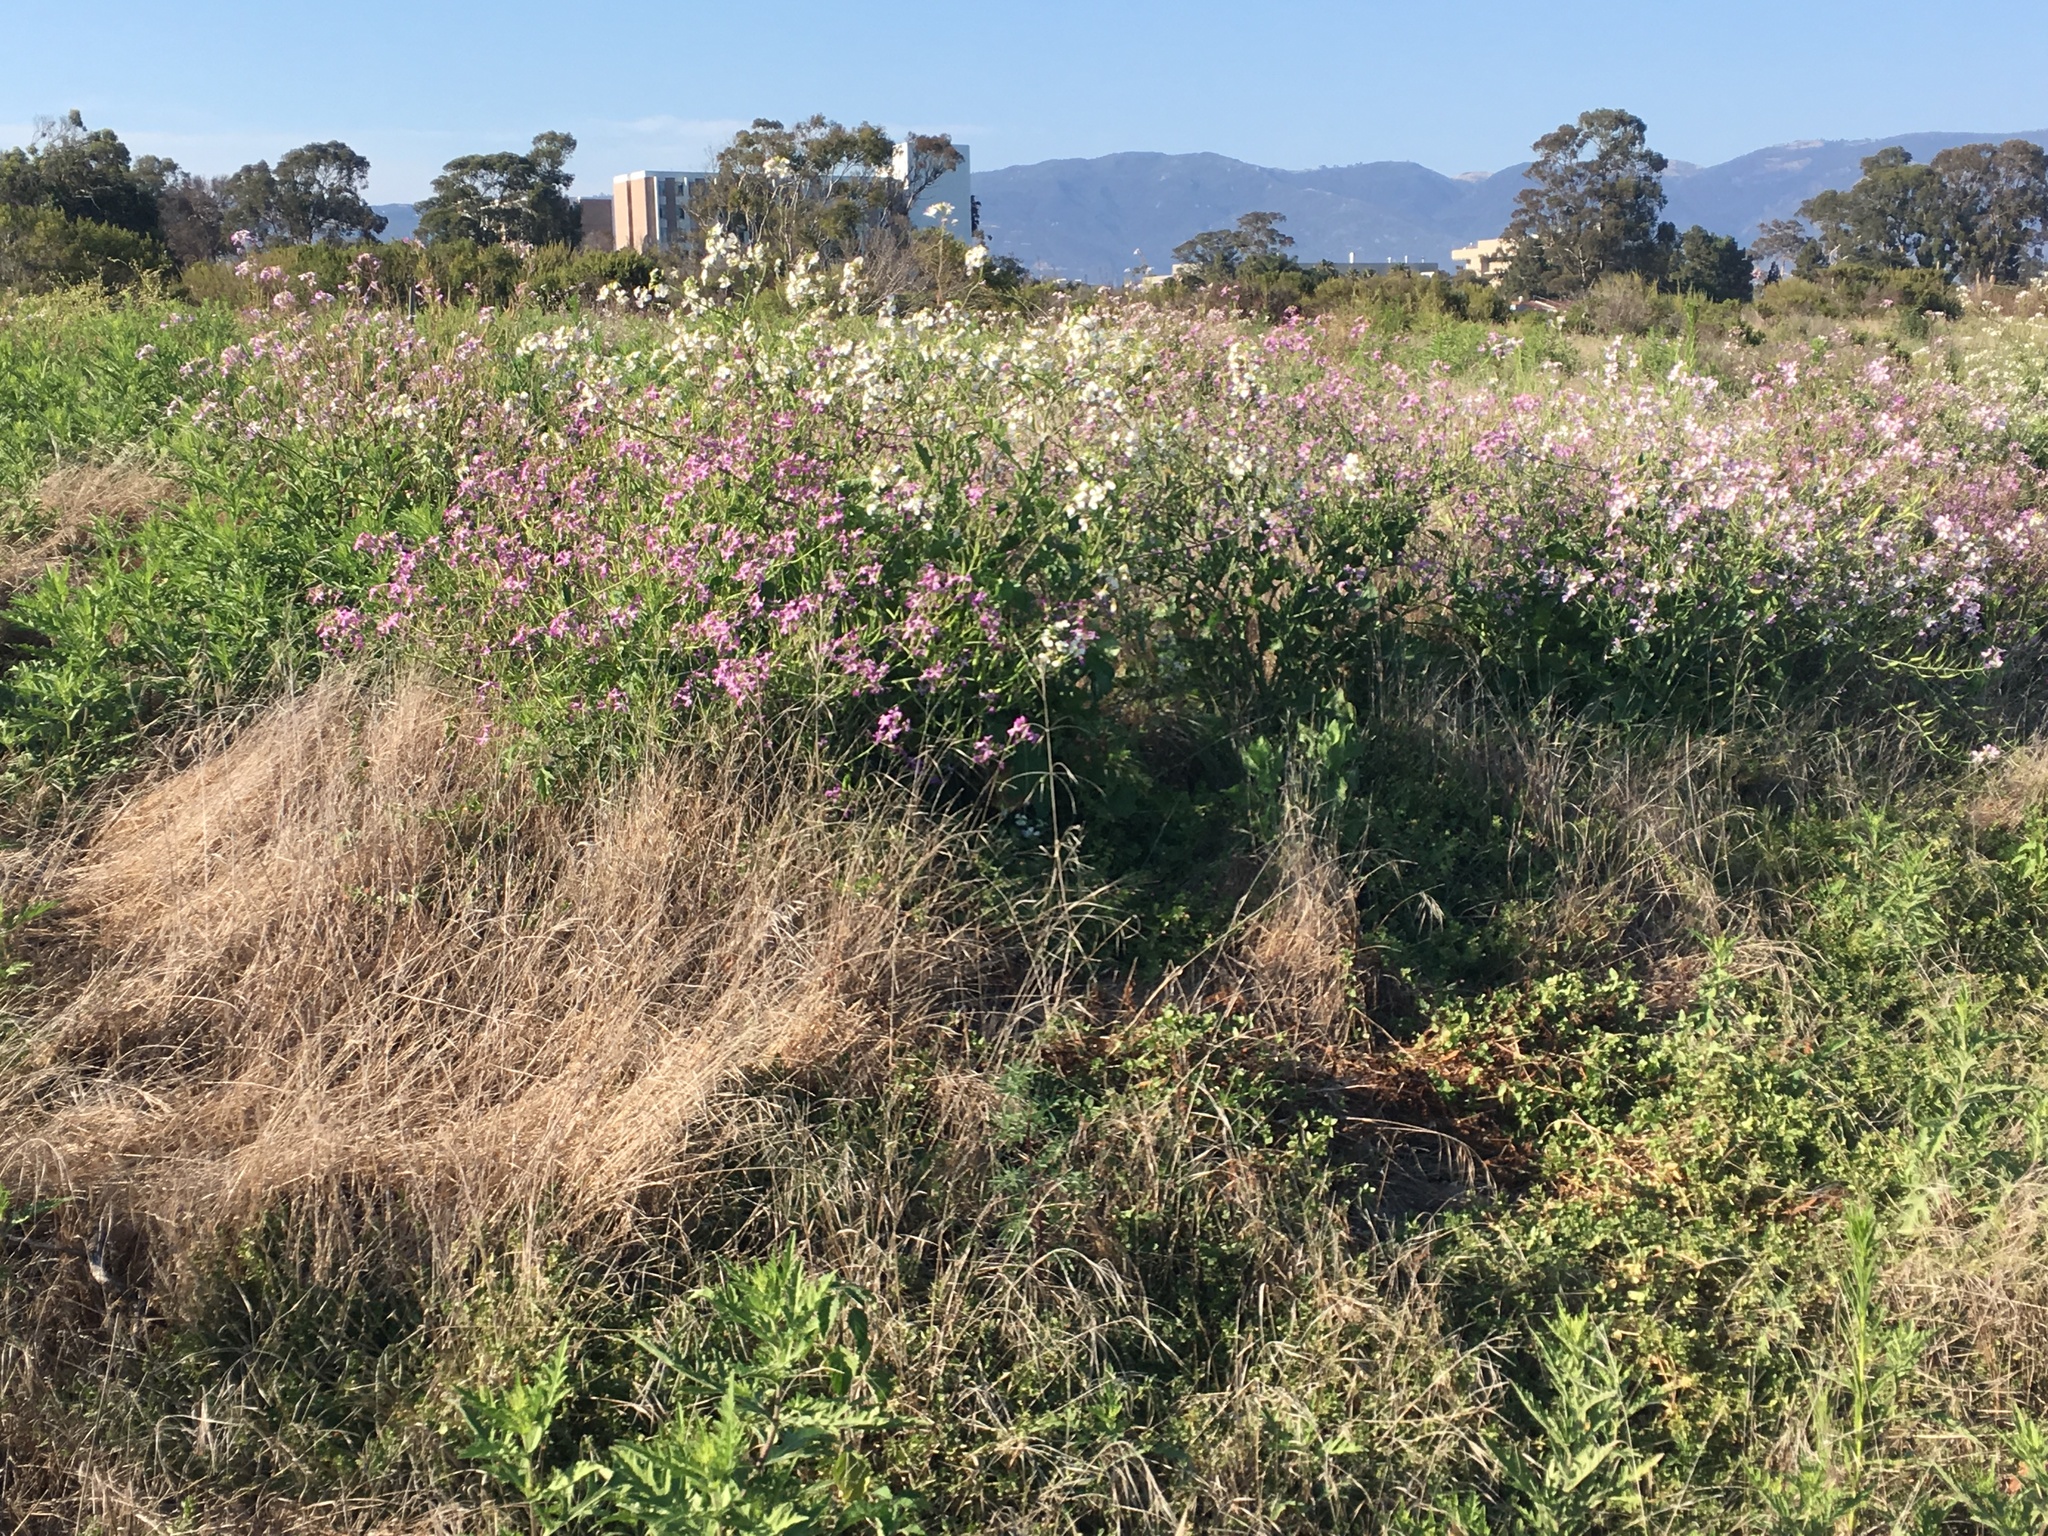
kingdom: Plantae
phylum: Tracheophyta
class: Magnoliopsida
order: Brassicales
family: Brassicaceae
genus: Raphanus
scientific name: Raphanus sativus
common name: Cultivated radish
